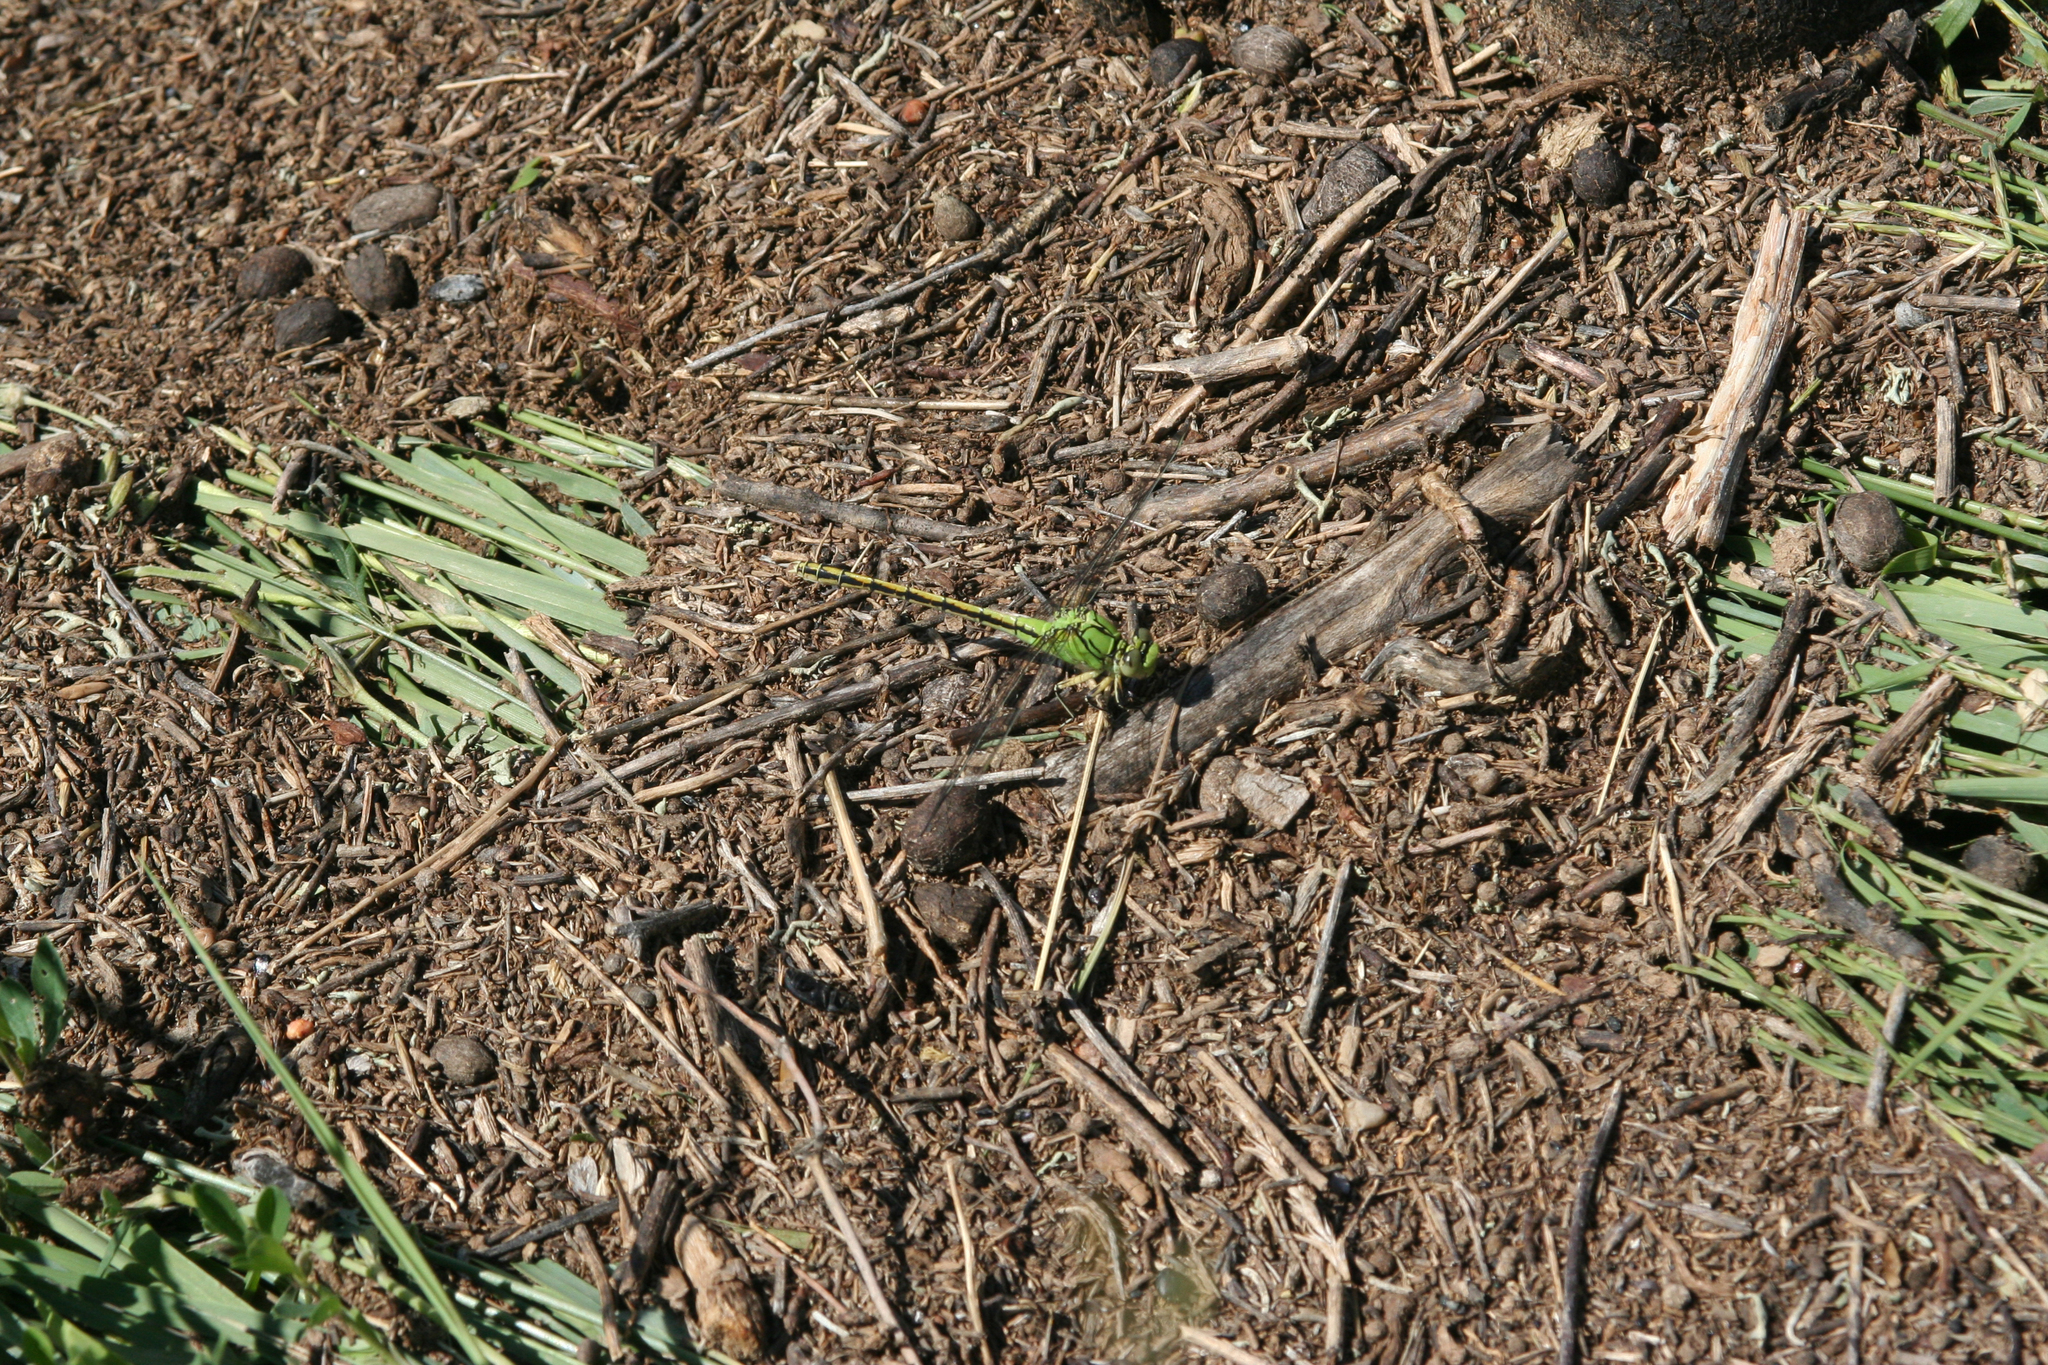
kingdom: Animalia
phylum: Arthropoda
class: Insecta
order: Odonata
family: Gomphidae
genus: Ophiogomphus
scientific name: Ophiogomphus spinicornis
